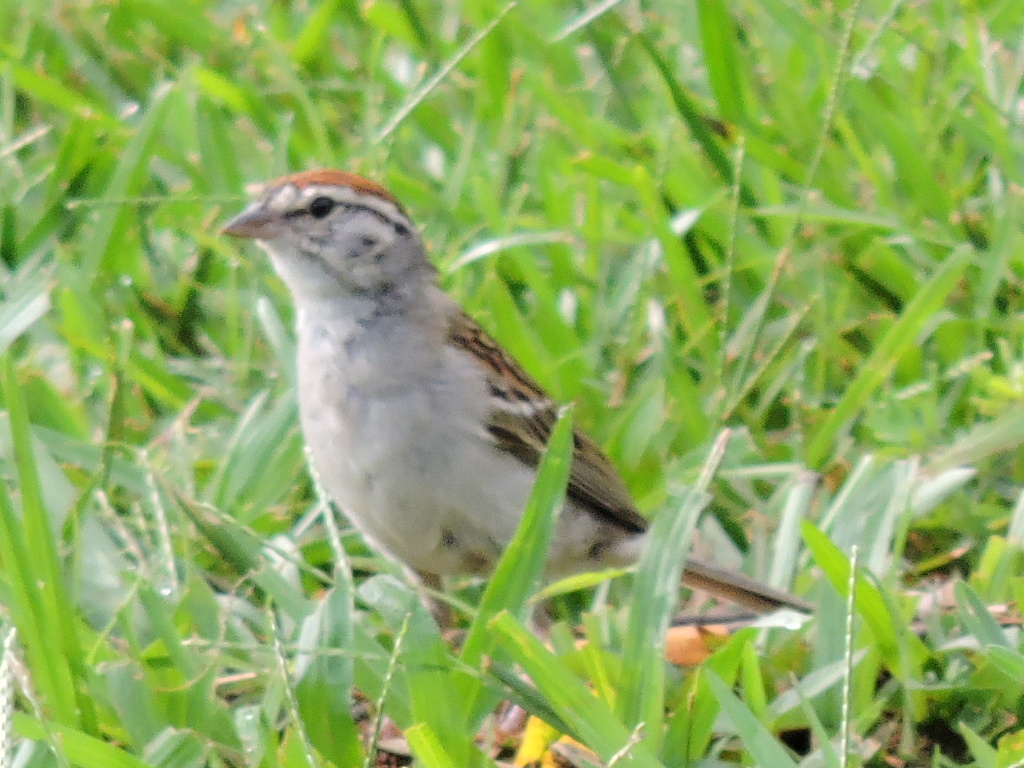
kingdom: Animalia
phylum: Chordata
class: Aves
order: Passeriformes
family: Passerellidae
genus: Spizella
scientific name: Spizella passerina
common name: Chipping sparrow
